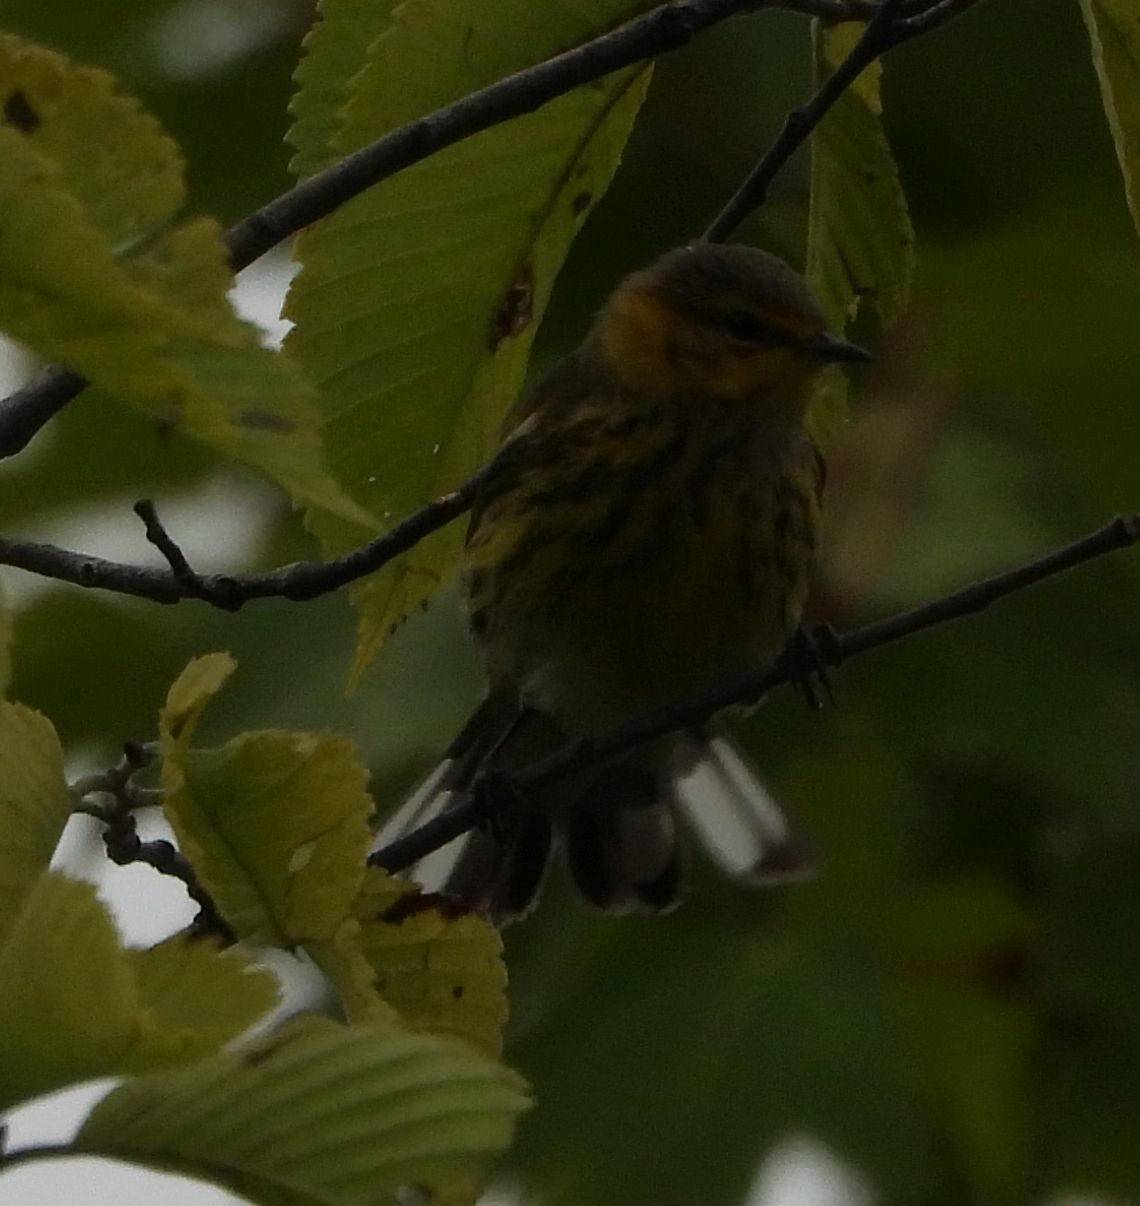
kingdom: Animalia
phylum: Chordata
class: Aves
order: Passeriformes
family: Parulidae
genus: Setophaga
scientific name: Setophaga tigrina
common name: Cape may warbler
